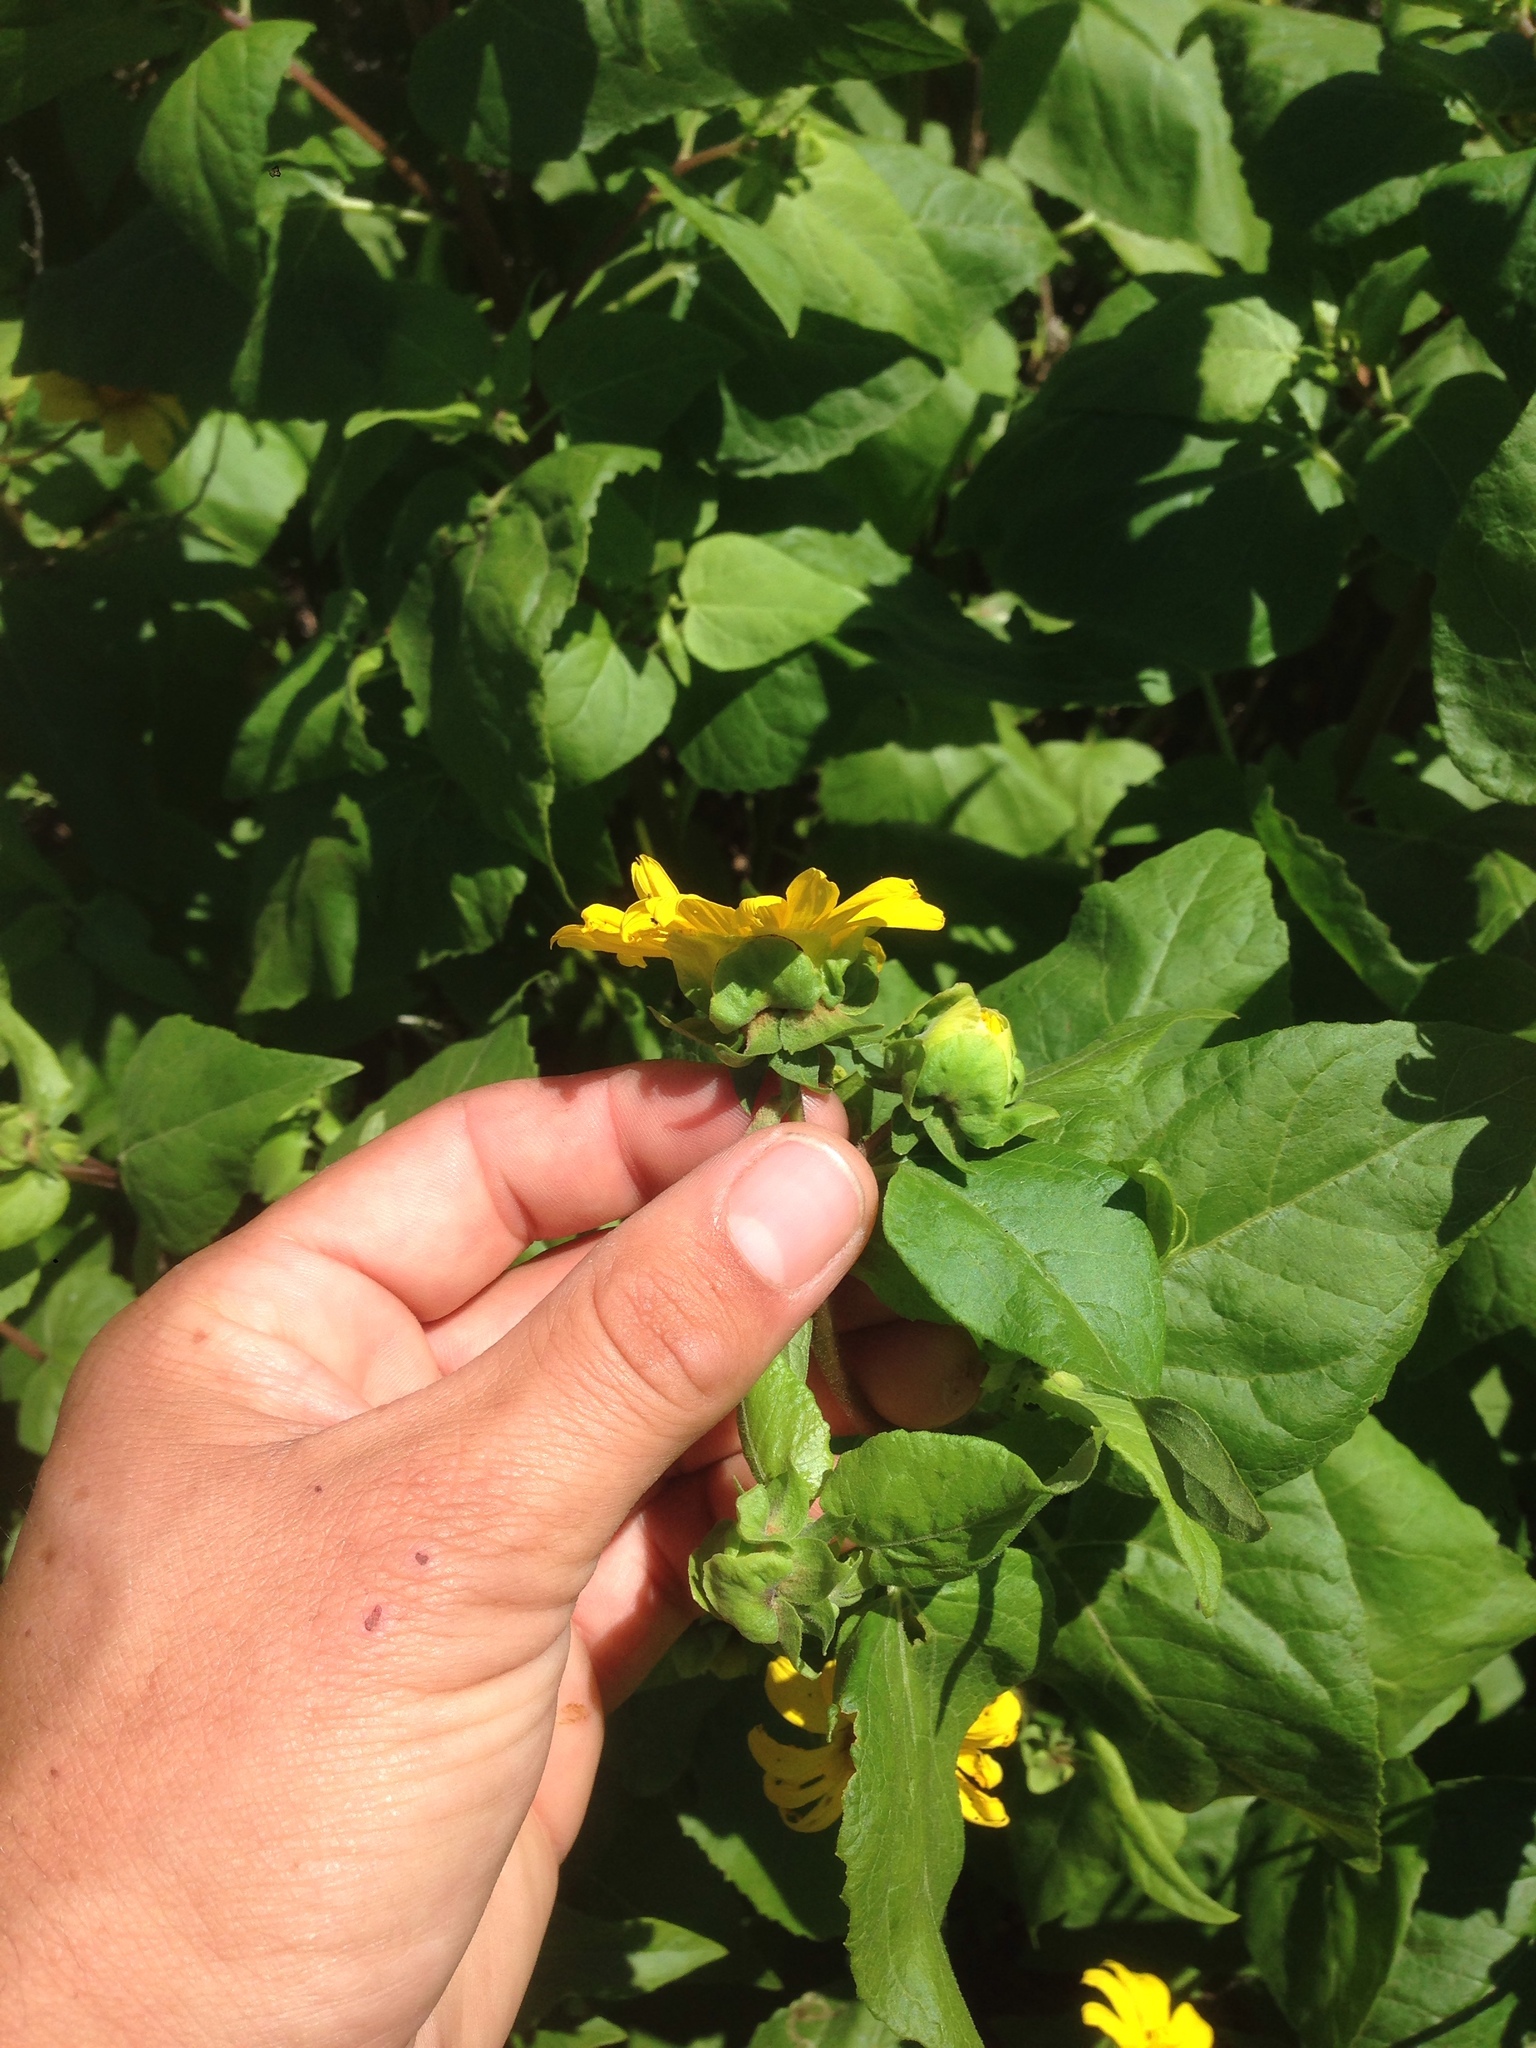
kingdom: Plantae
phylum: Tracheophyta
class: Magnoliopsida
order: Asterales
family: Asteraceae
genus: Venegasia
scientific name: Venegasia carpesioides
